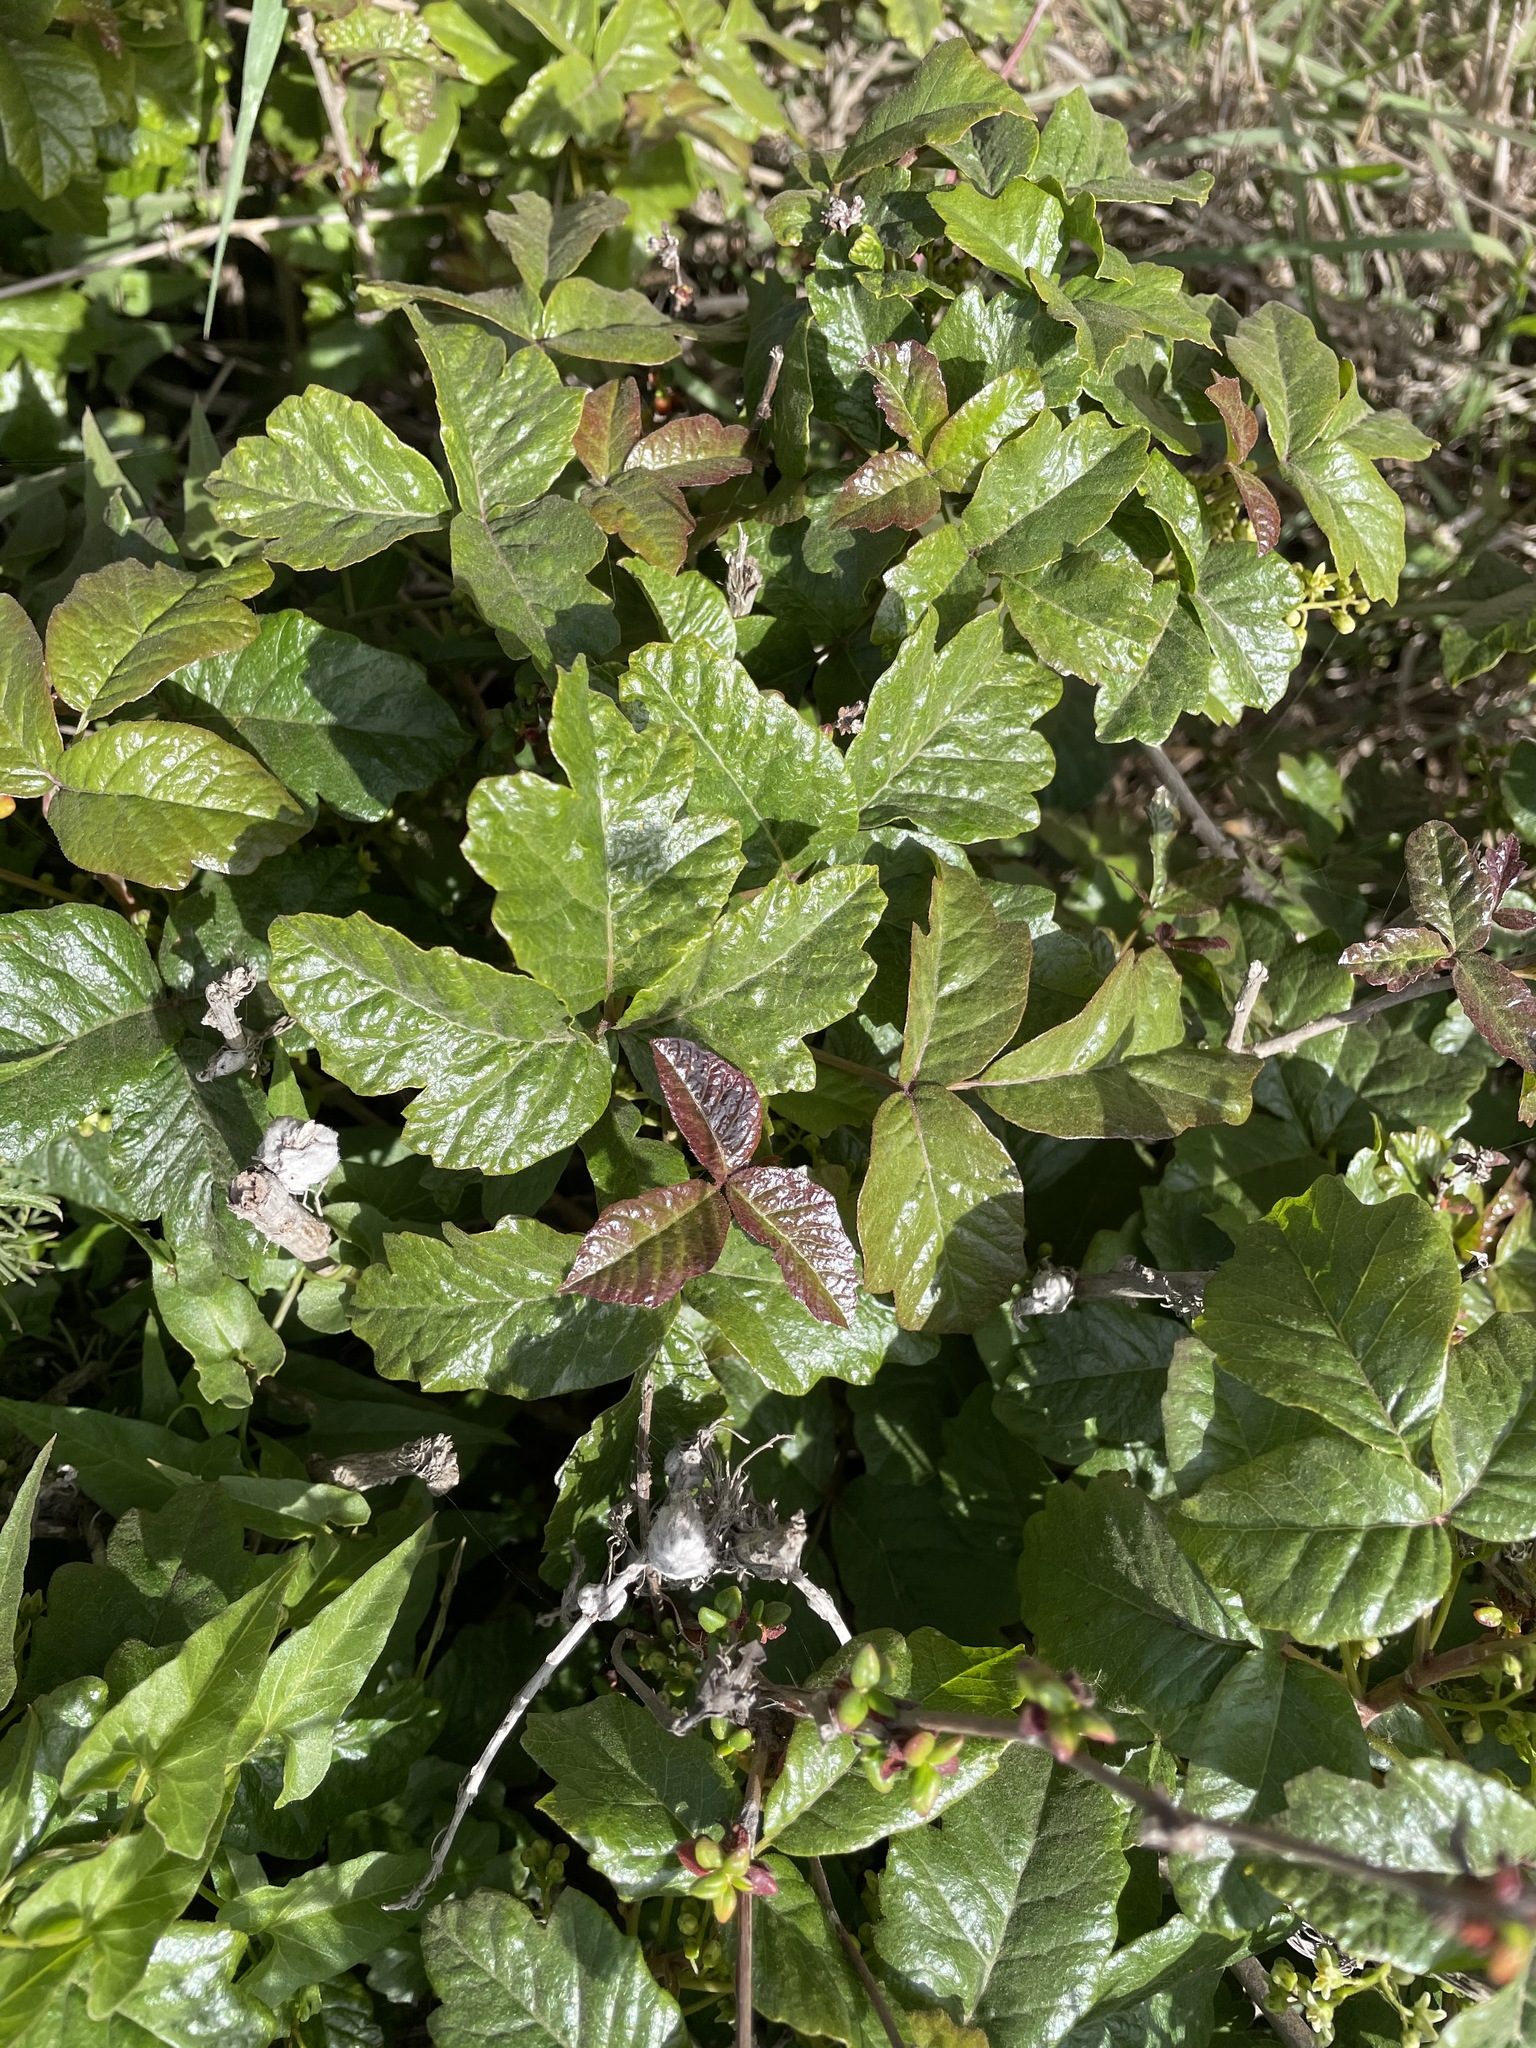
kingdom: Plantae
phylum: Tracheophyta
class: Magnoliopsida
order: Sapindales
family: Anacardiaceae
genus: Toxicodendron
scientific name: Toxicodendron diversilobum
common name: Pacific poison-oak
